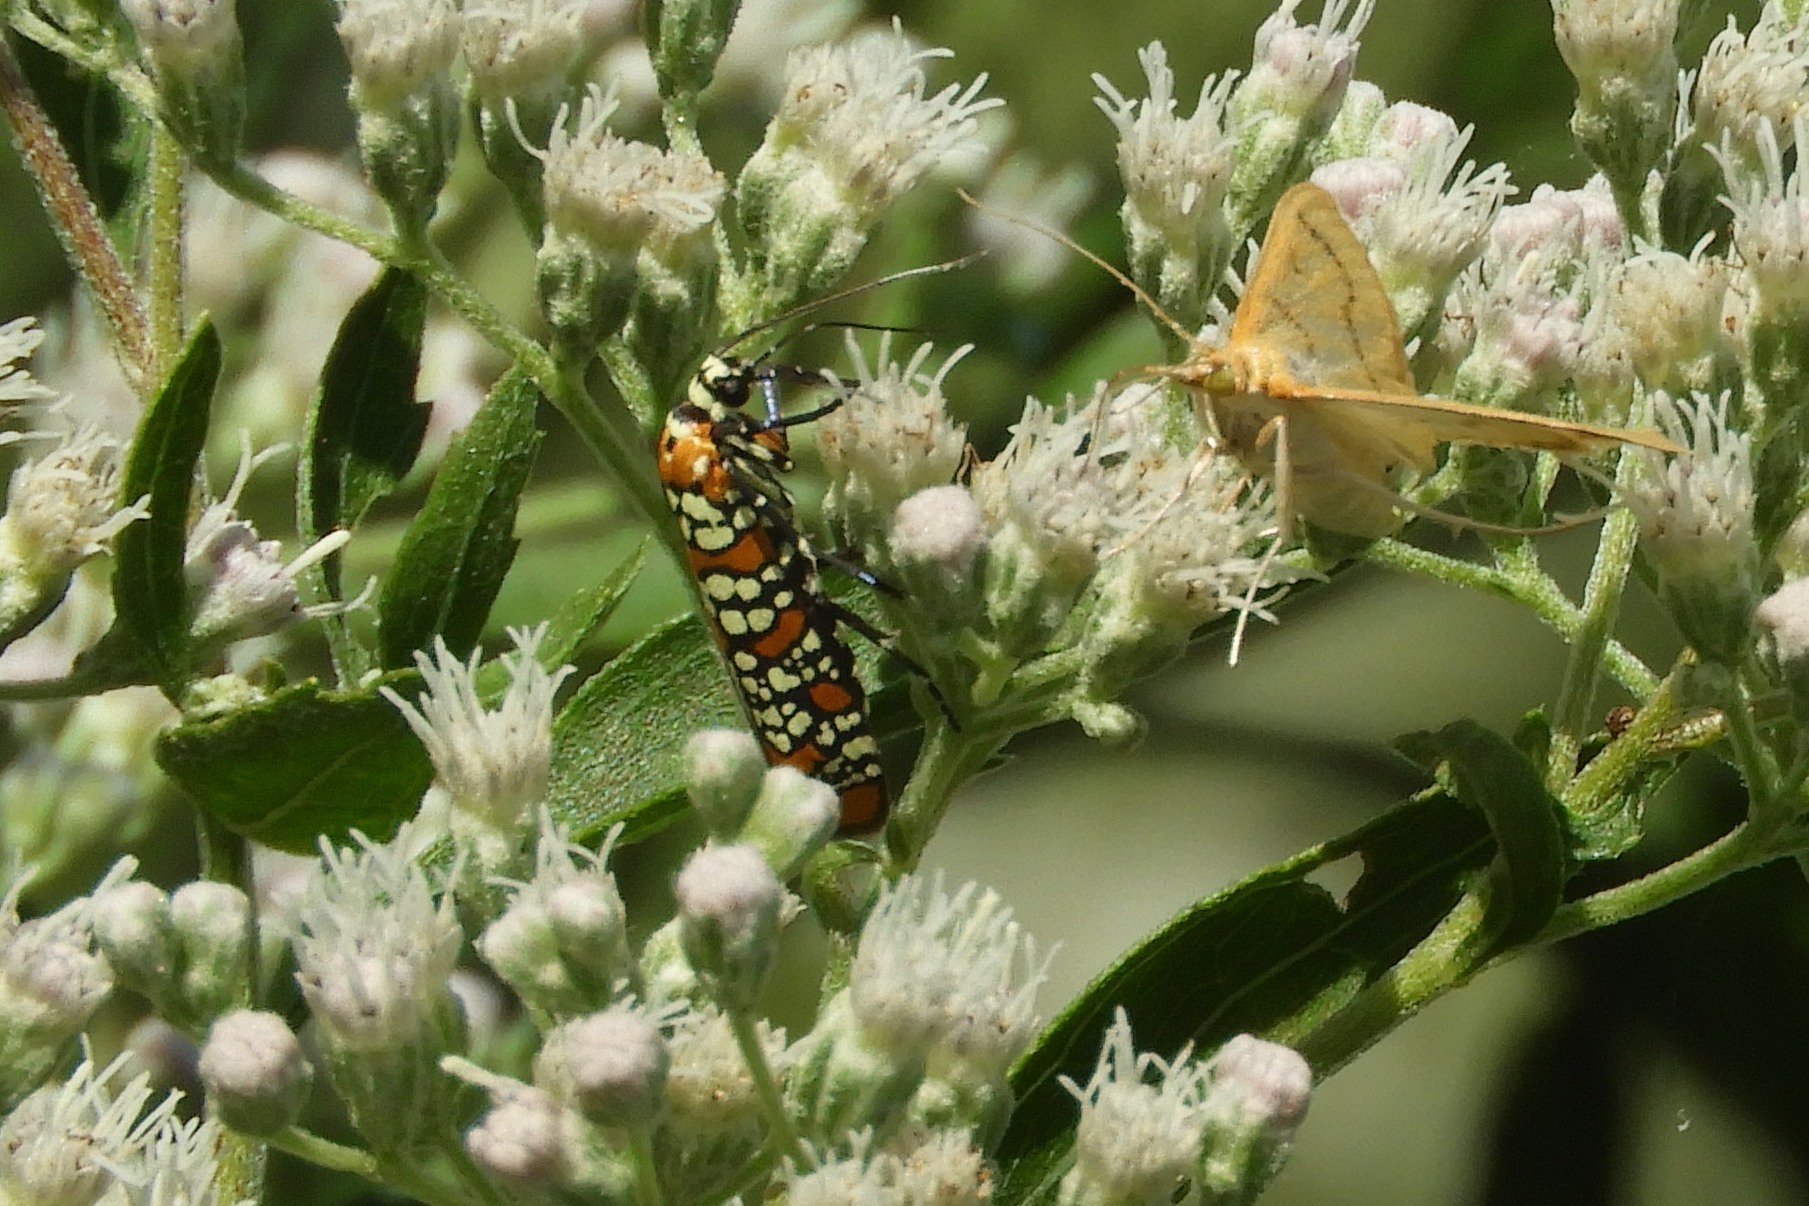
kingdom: Animalia
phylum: Arthropoda
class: Insecta
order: Lepidoptera
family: Attevidae
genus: Atteva
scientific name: Atteva punctella
